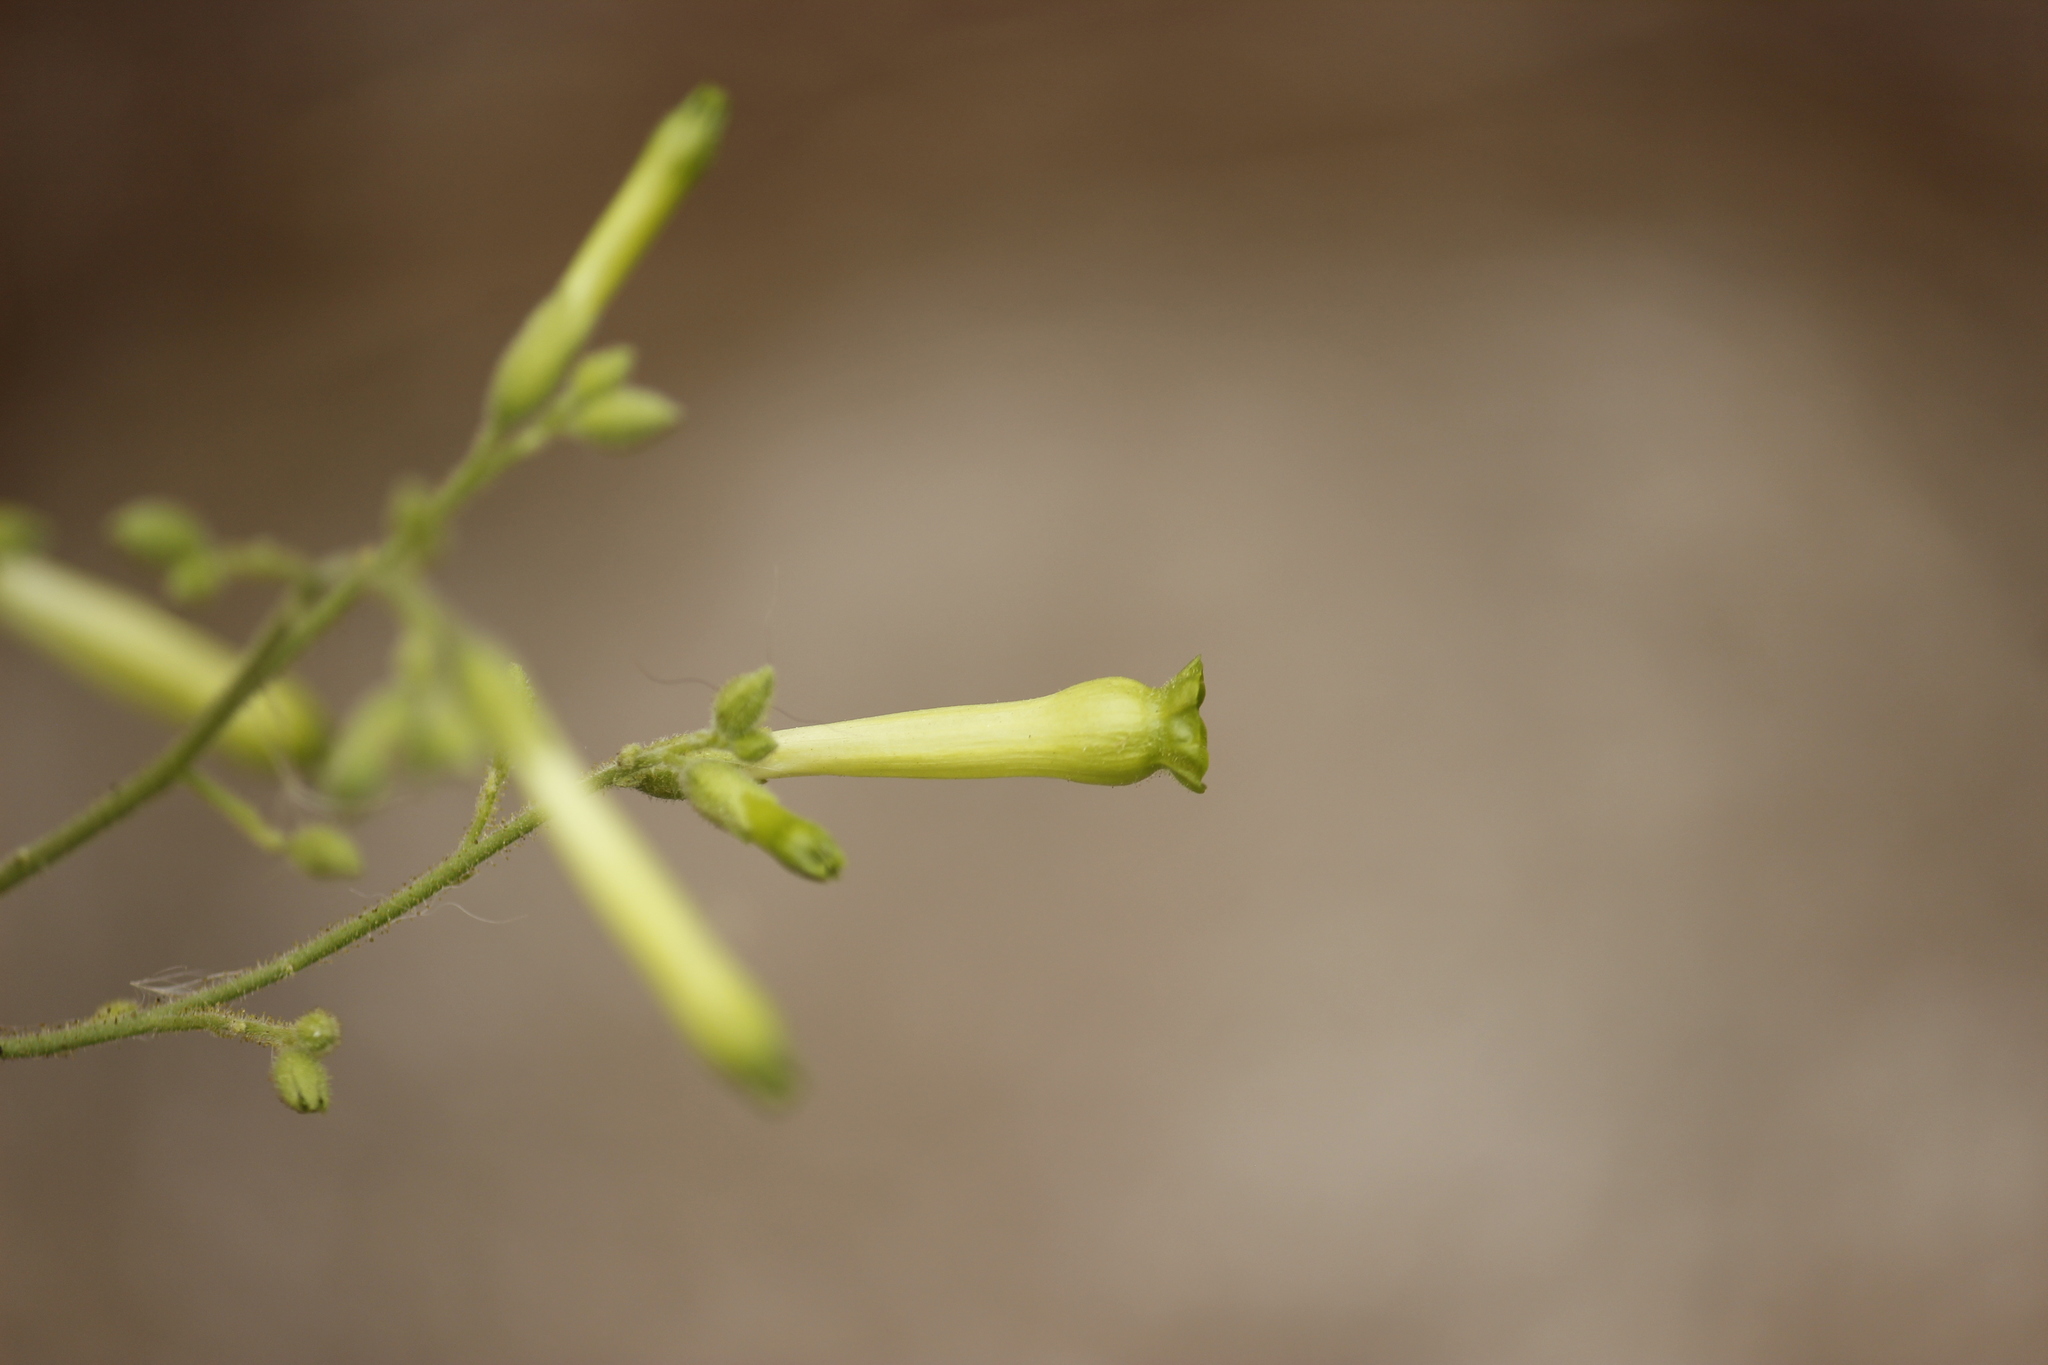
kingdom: Plantae
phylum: Tracheophyta
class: Magnoliopsida
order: Solanales
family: Solanaceae
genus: Nicotiana
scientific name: Nicotiana paniculata
